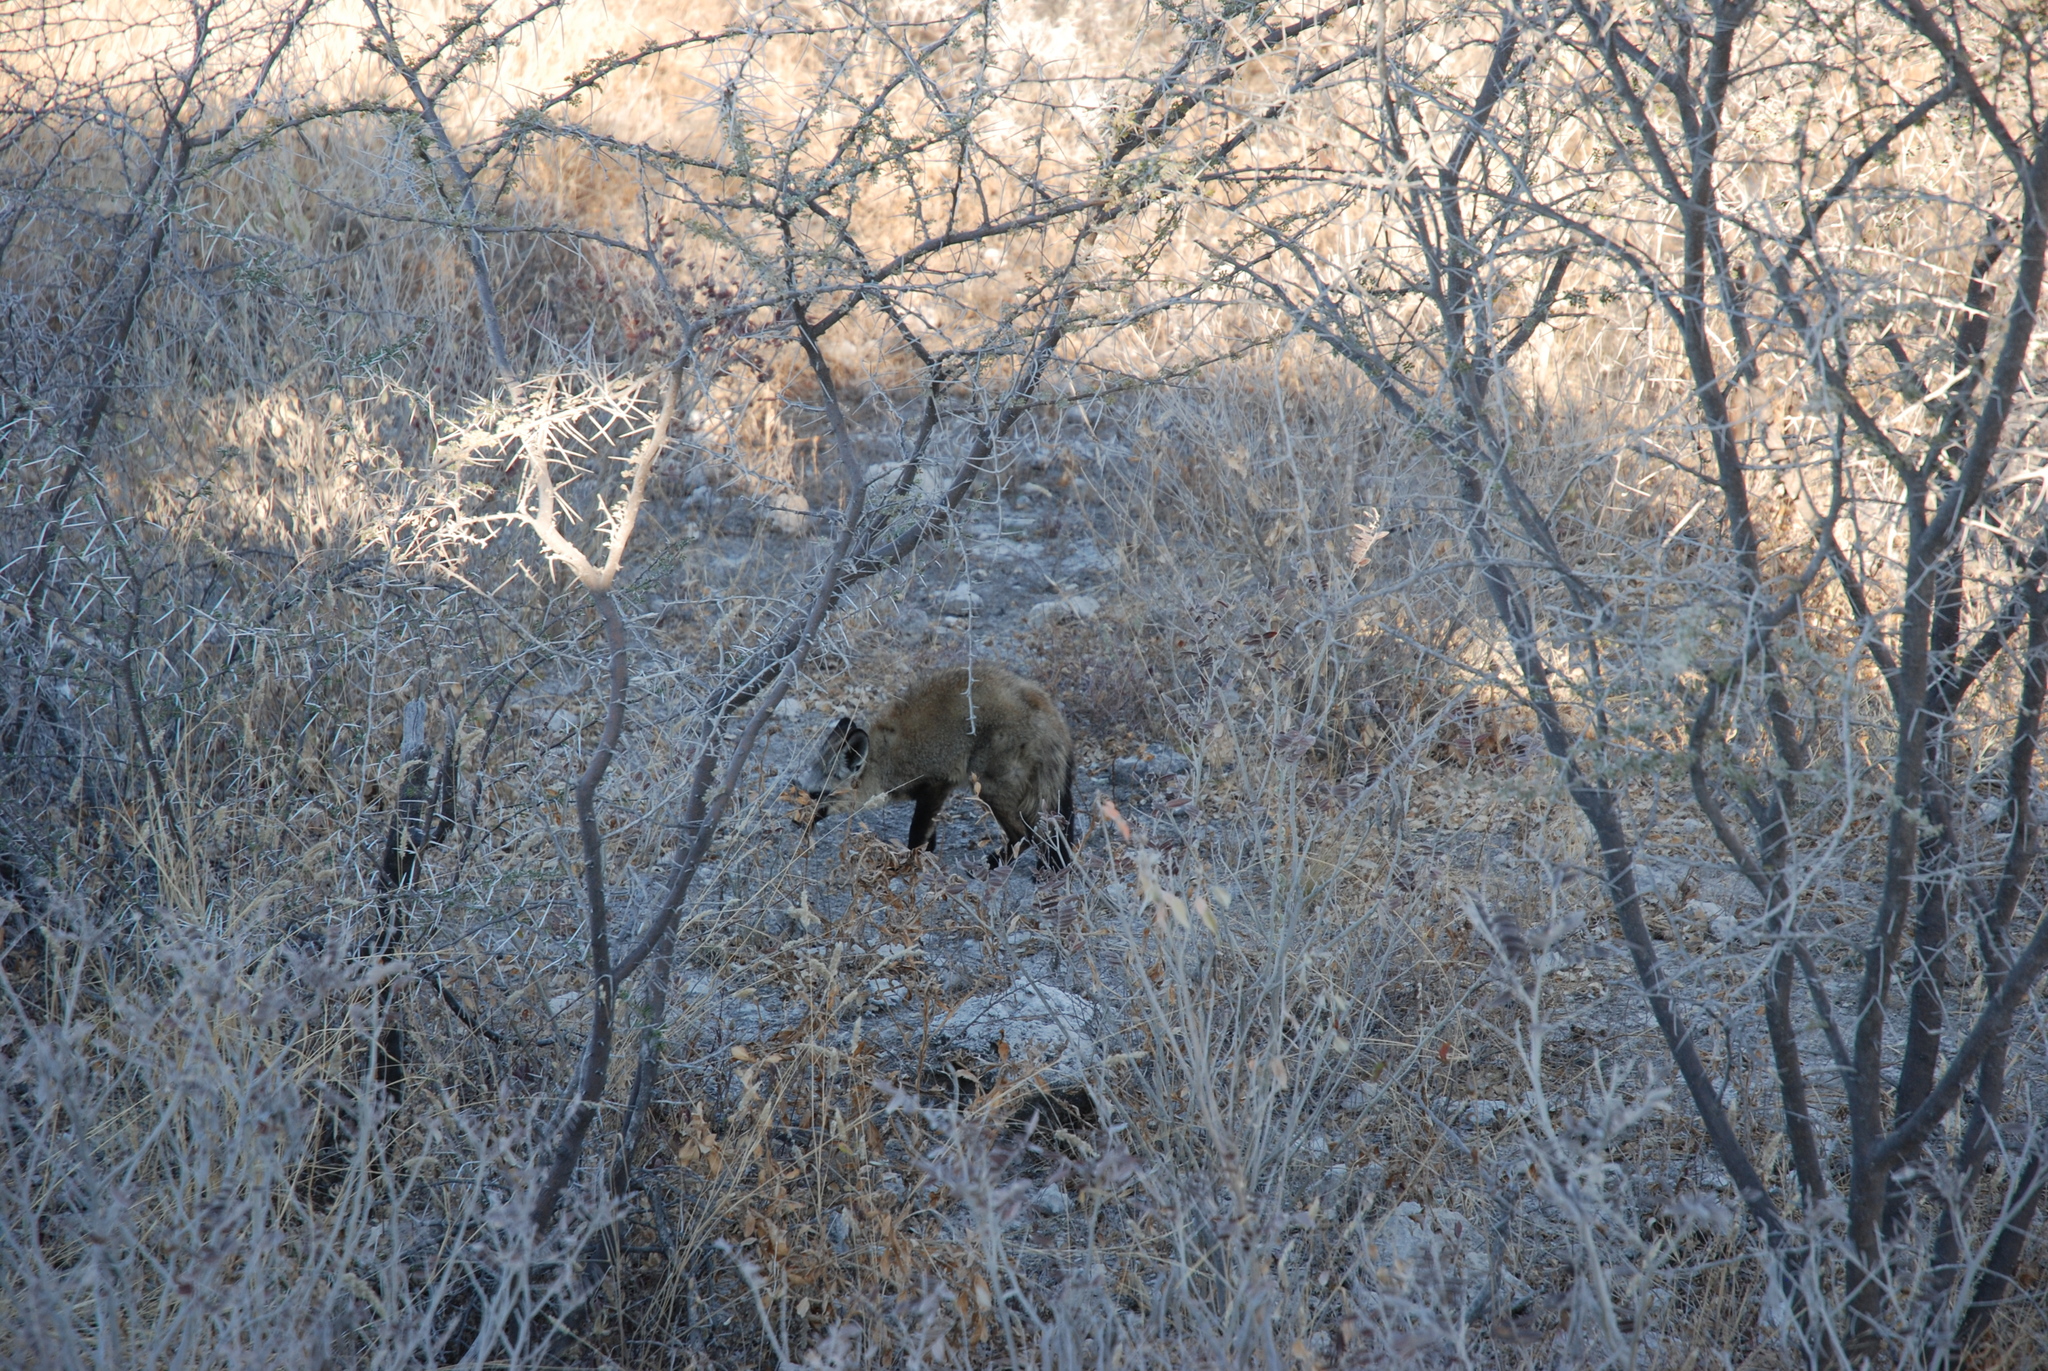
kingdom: Animalia
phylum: Chordata
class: Mammalia
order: Carnivora
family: Canidae
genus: Otocyon
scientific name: Otocyon megalotis
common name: Bat-eared fox
